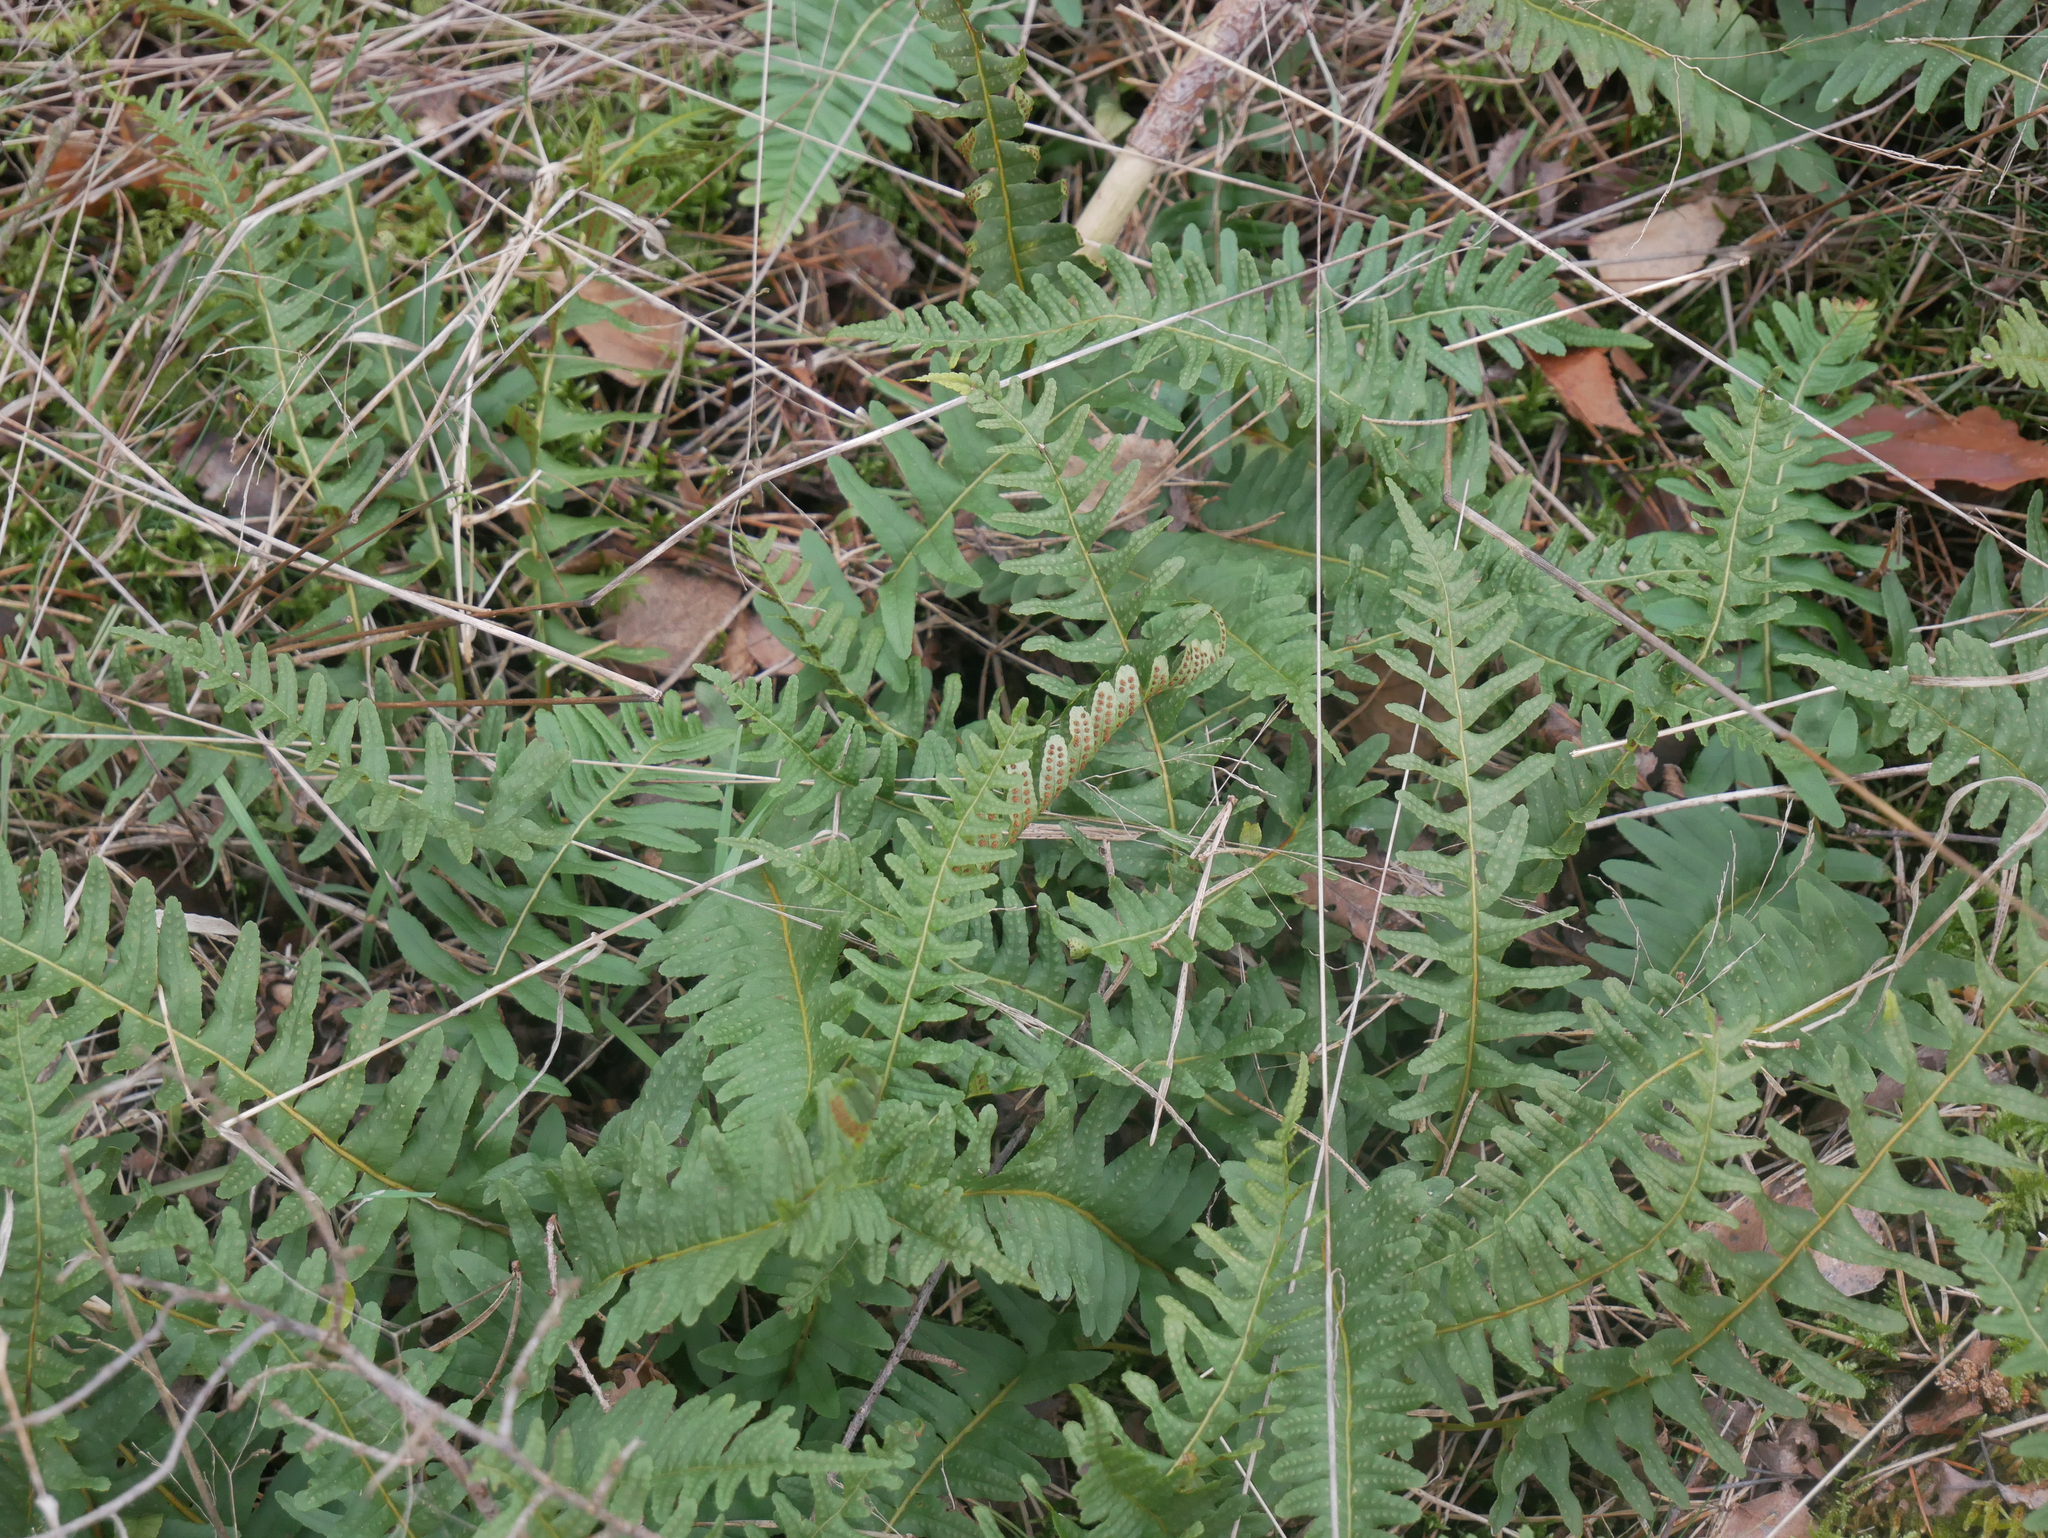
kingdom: Plantae
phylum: Tracheophyta
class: Polypodiopsida
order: Polypodiales
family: Polypodiaceae
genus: Polypodium
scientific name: Polypodium vulgare
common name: Common polypody
